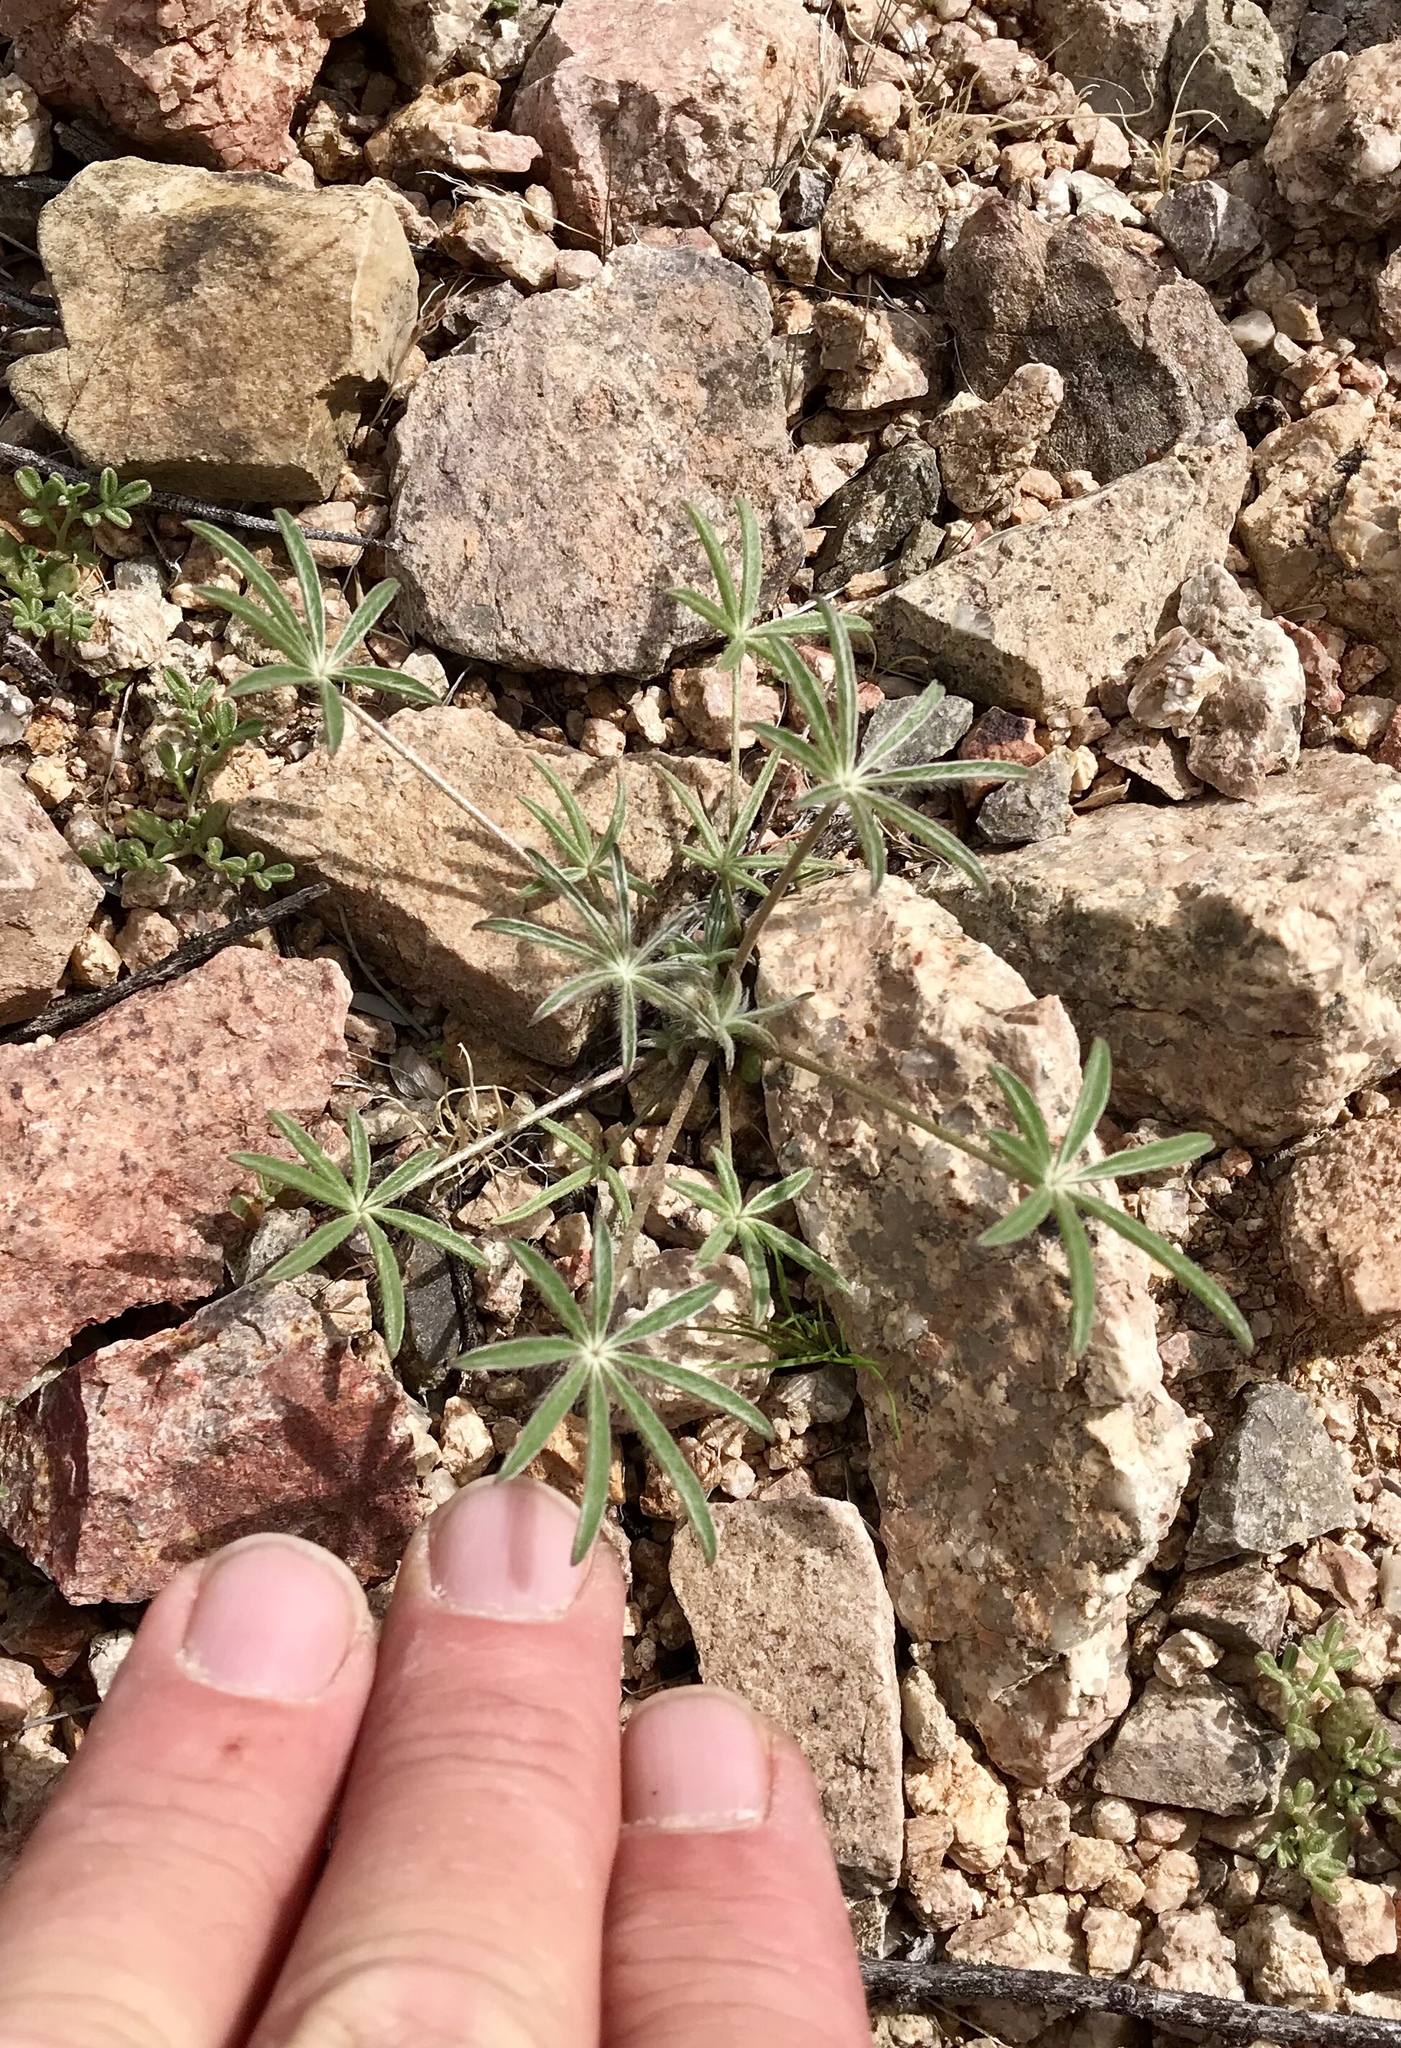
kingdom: Plantae
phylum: Tracheophyta
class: Magnoliopsida
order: Fabales
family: Fabaceae
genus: Lupinus
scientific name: Lupinus sparsiflorus
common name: Coulter's lupine
